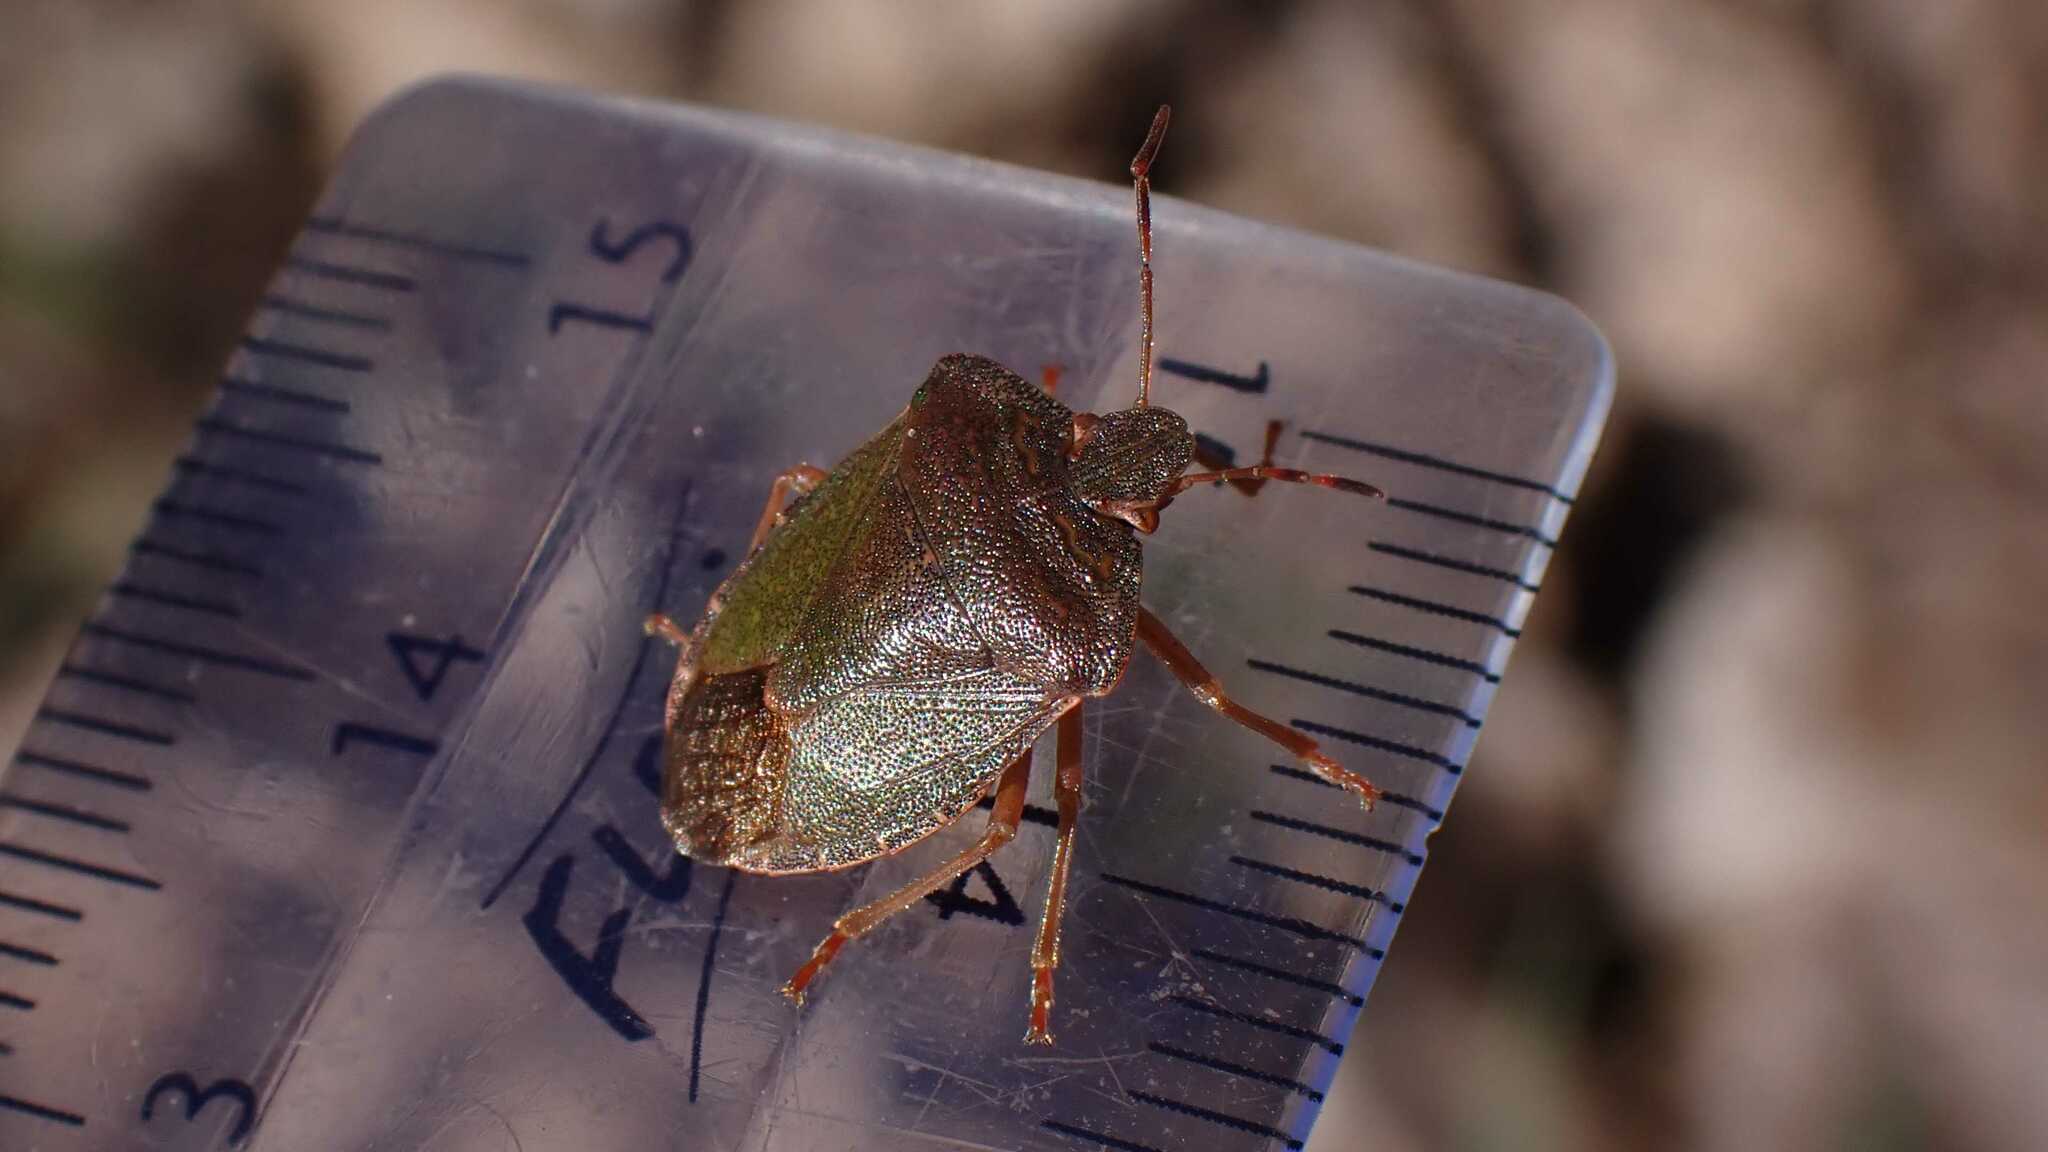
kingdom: Animalia
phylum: Arthropoda
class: Insecta
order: Hemiptera
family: Pentatomidae
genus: Palomena
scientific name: Palomena prasina
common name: Green shieldbug
